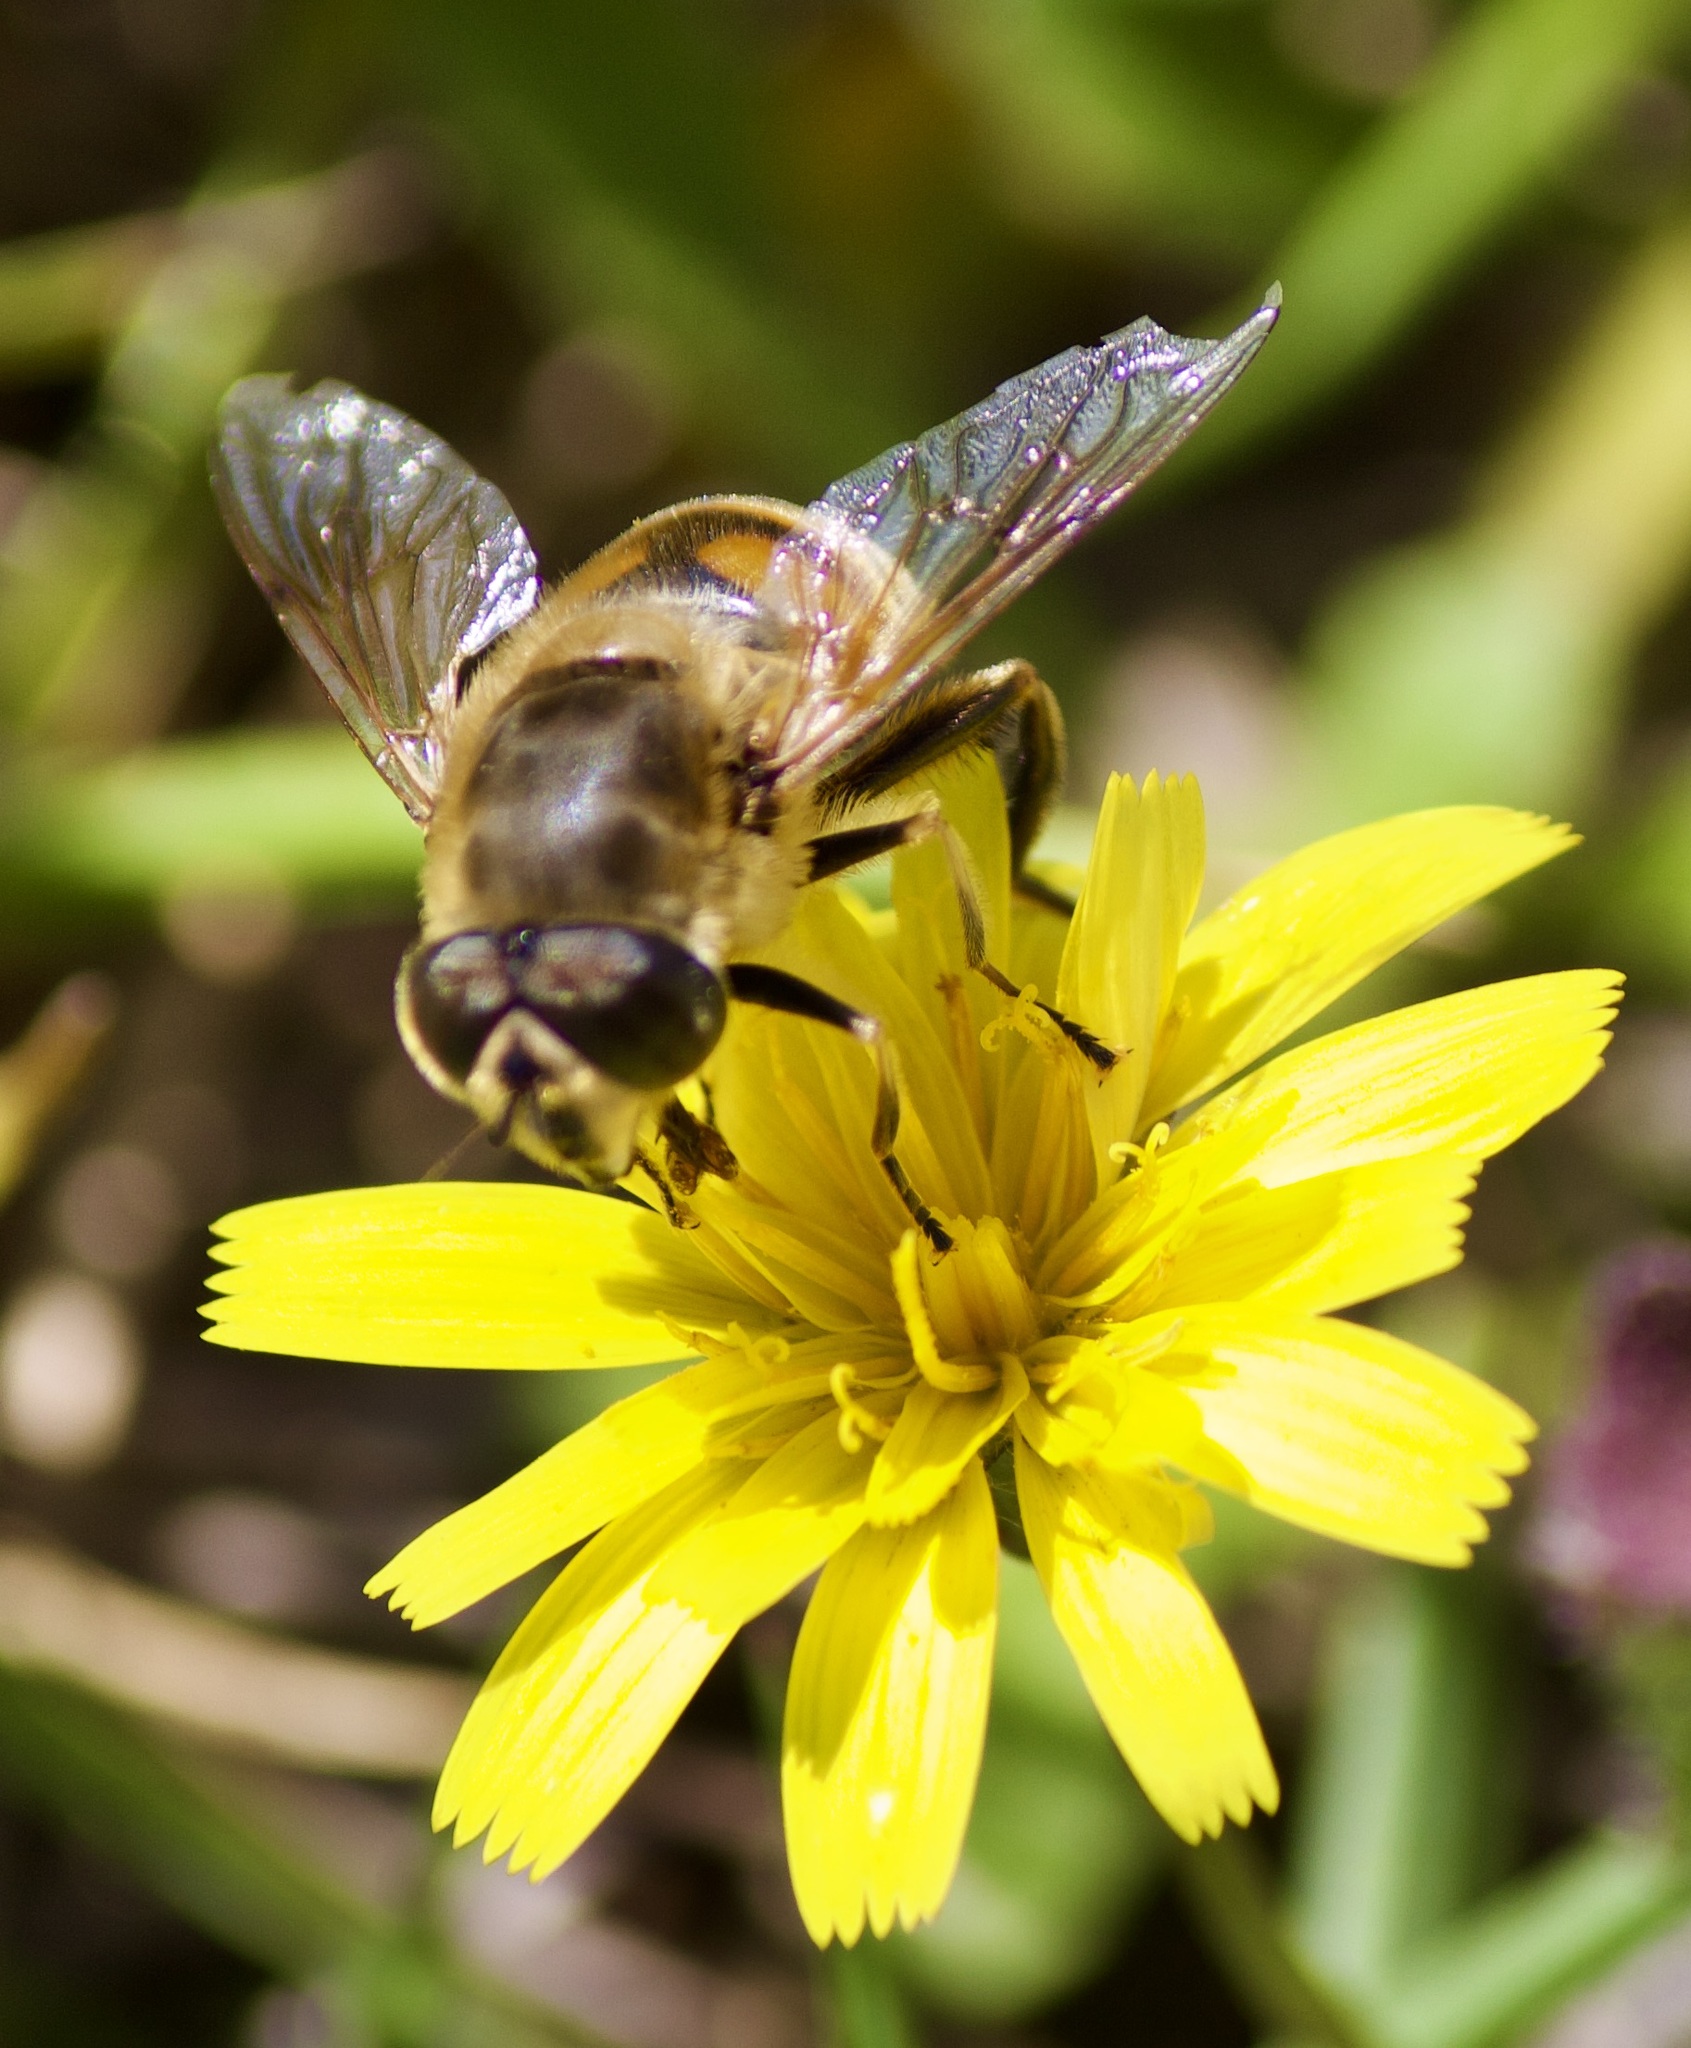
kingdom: Animalia
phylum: Arthropoda
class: Insecta
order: Diptera
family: Syrphidae
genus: Eristalis
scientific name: Eristalis tenax
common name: Drone fly
